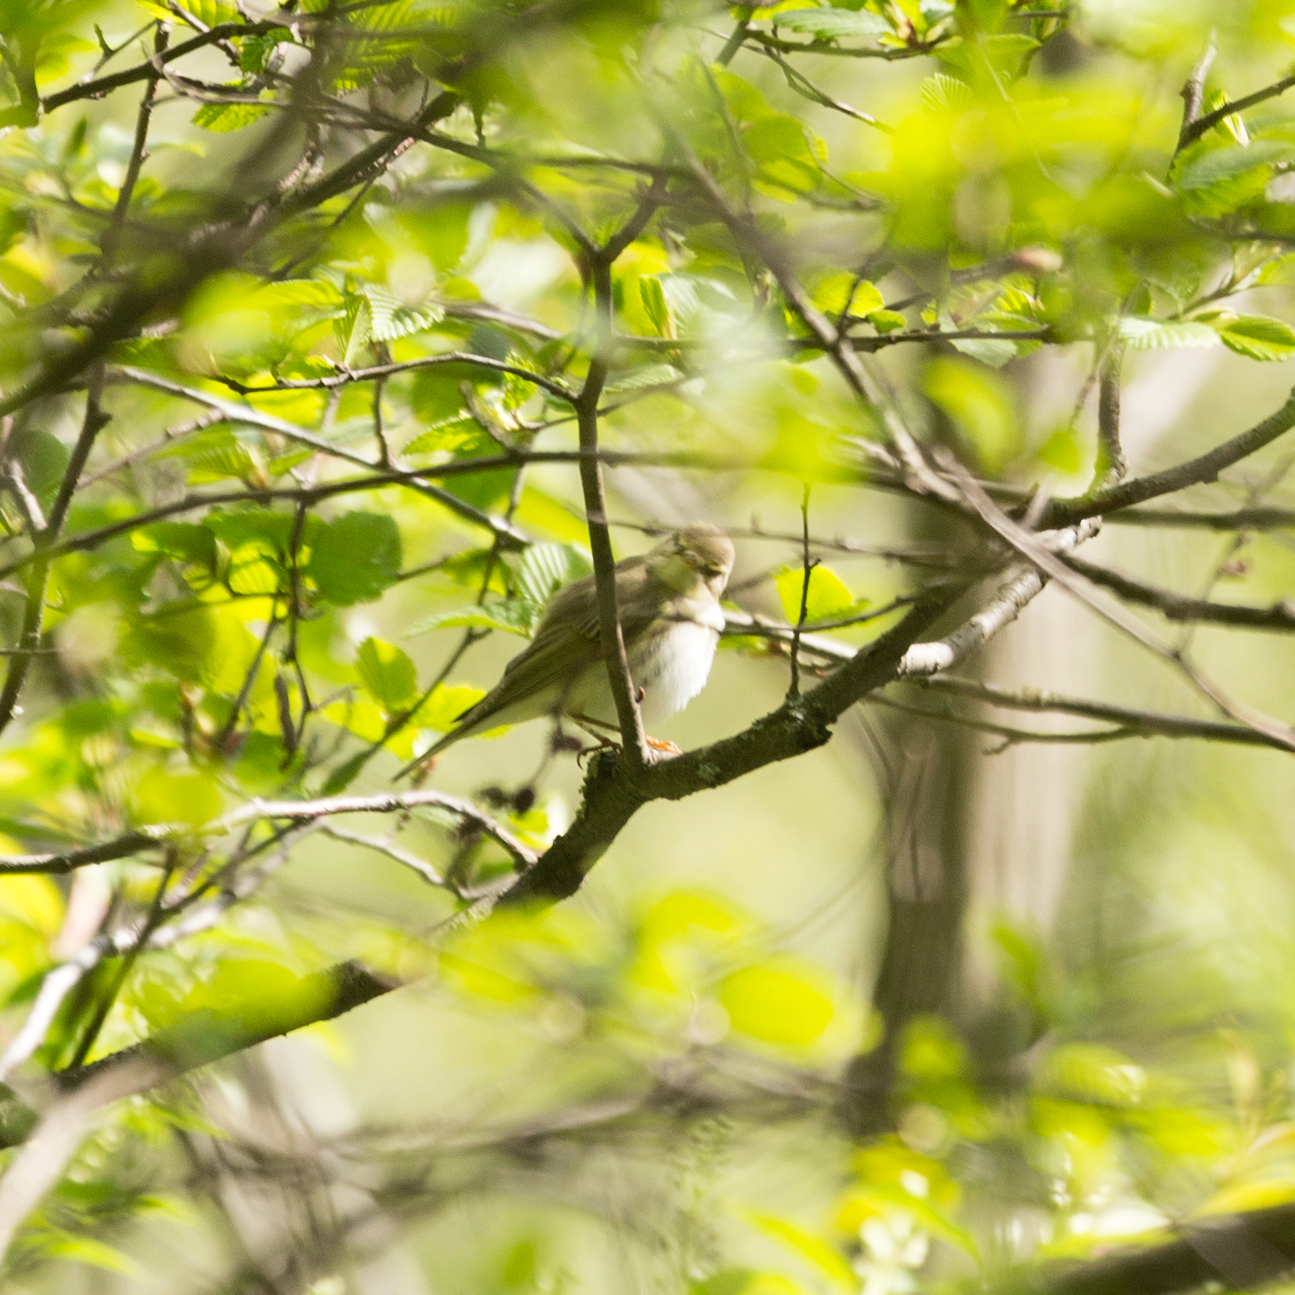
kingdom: Animalia
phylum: Chordata
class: Aves
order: Passeriformes
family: Phylloscopidae
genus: Phylloscopus
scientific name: Phylloscopus trochilus
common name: Willow warbler
